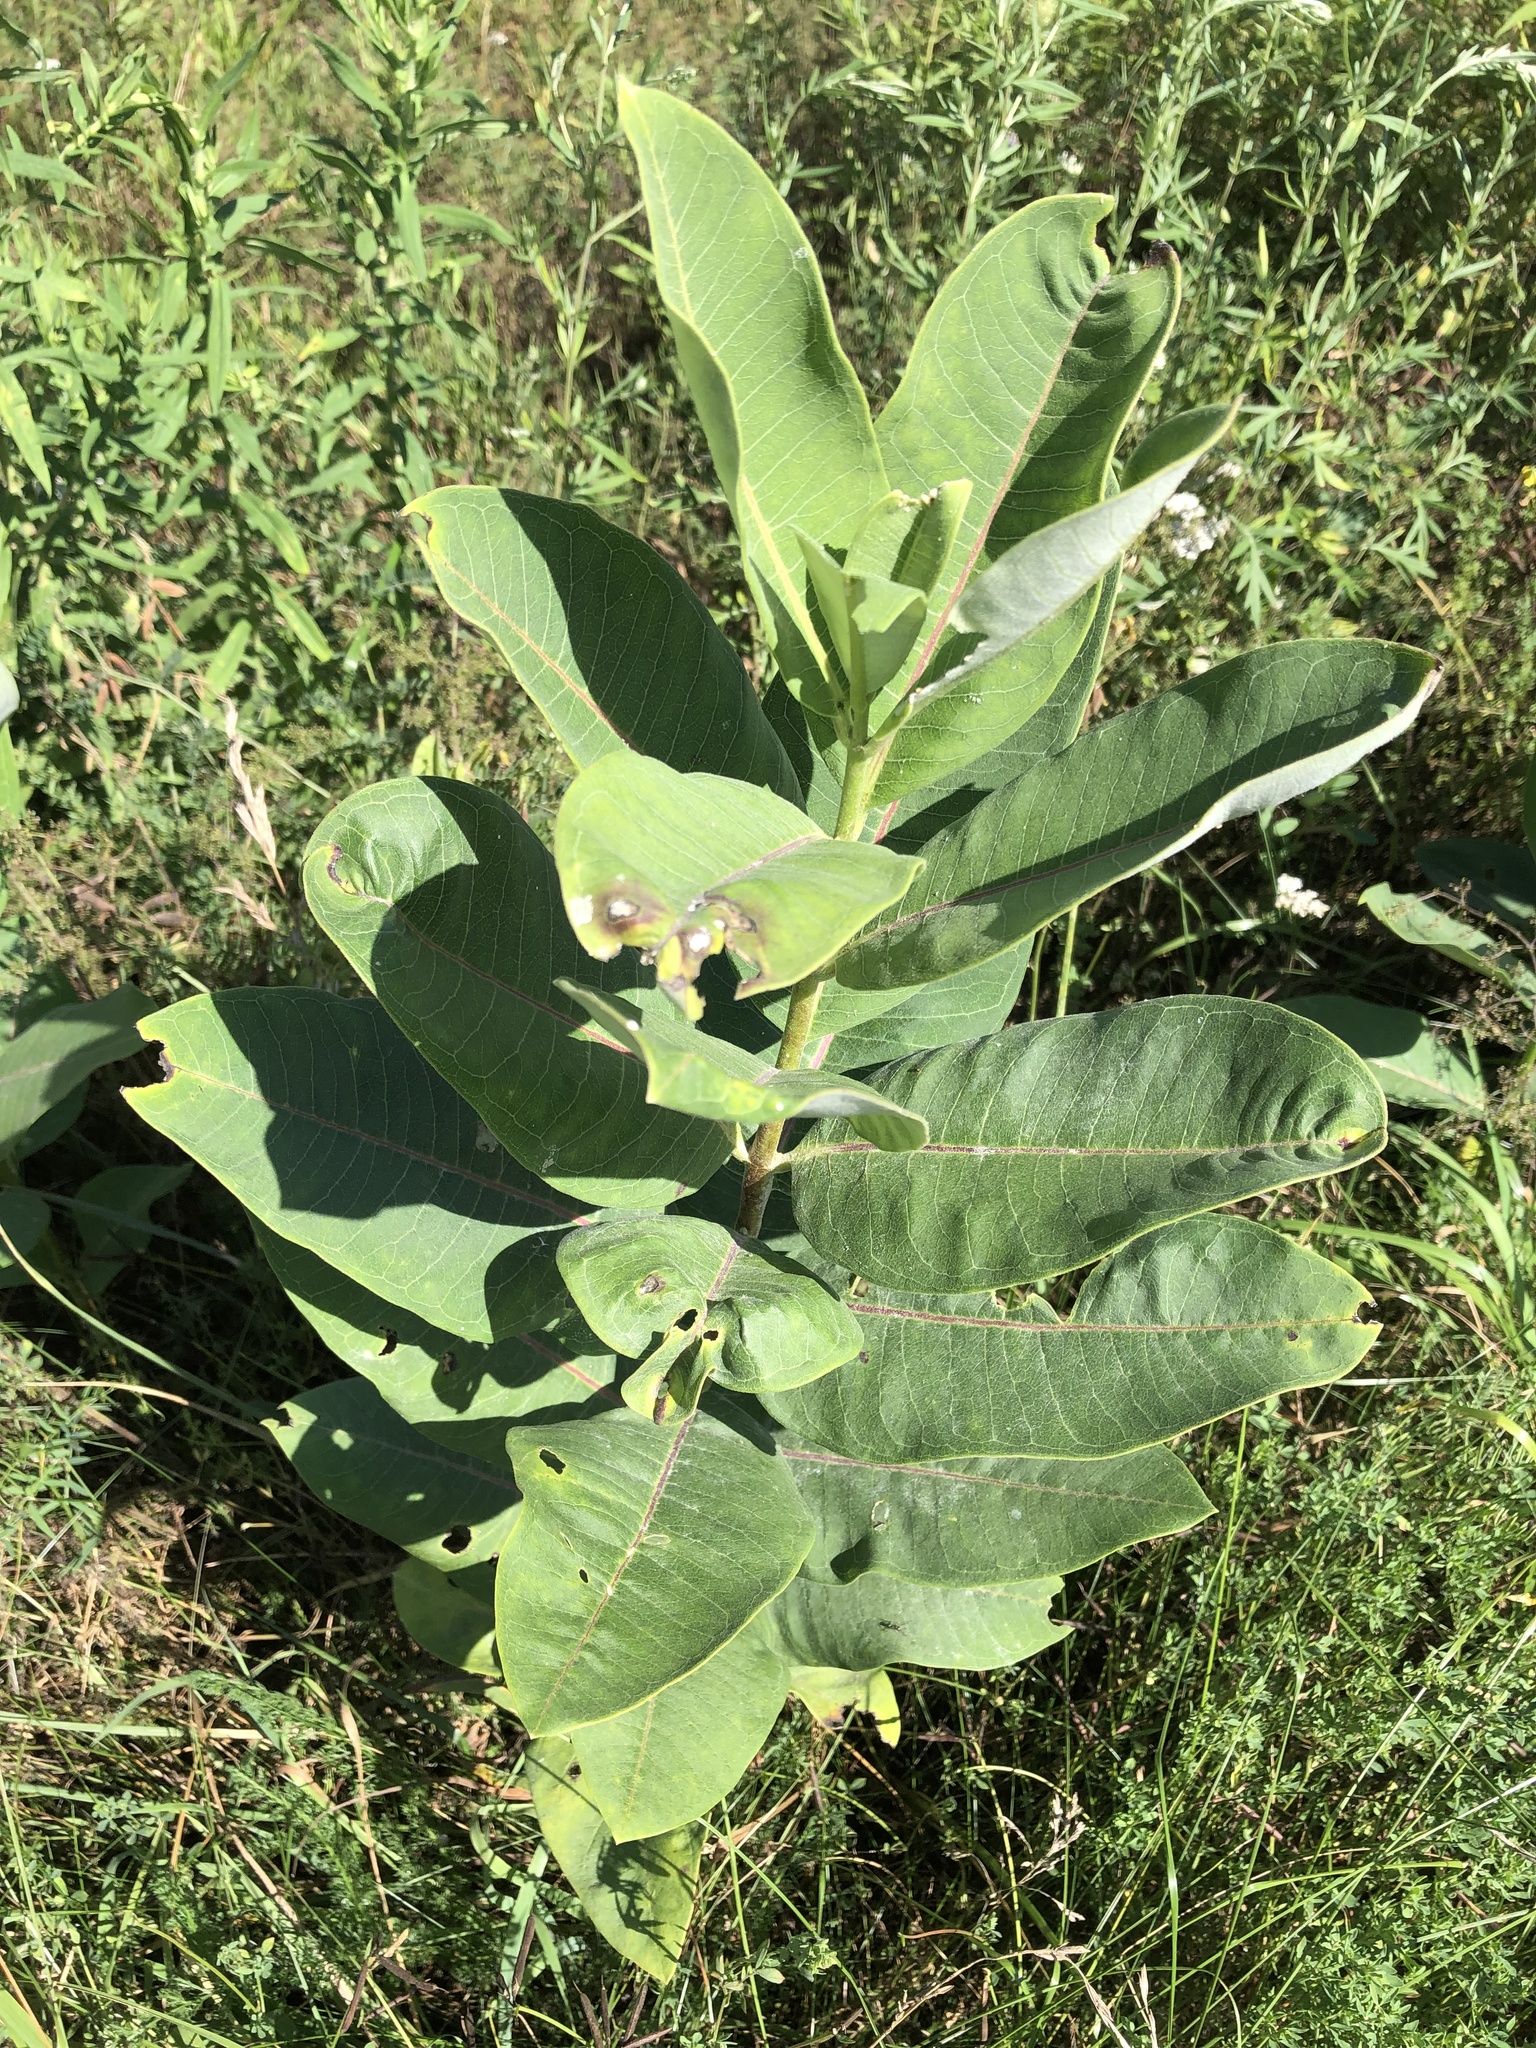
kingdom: Plantae
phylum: Tracheophyta
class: Magnoliopsida
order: Gentianales
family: Apocynaceae
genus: Asclepias
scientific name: Asclepias syriaca
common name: Common milkweed
